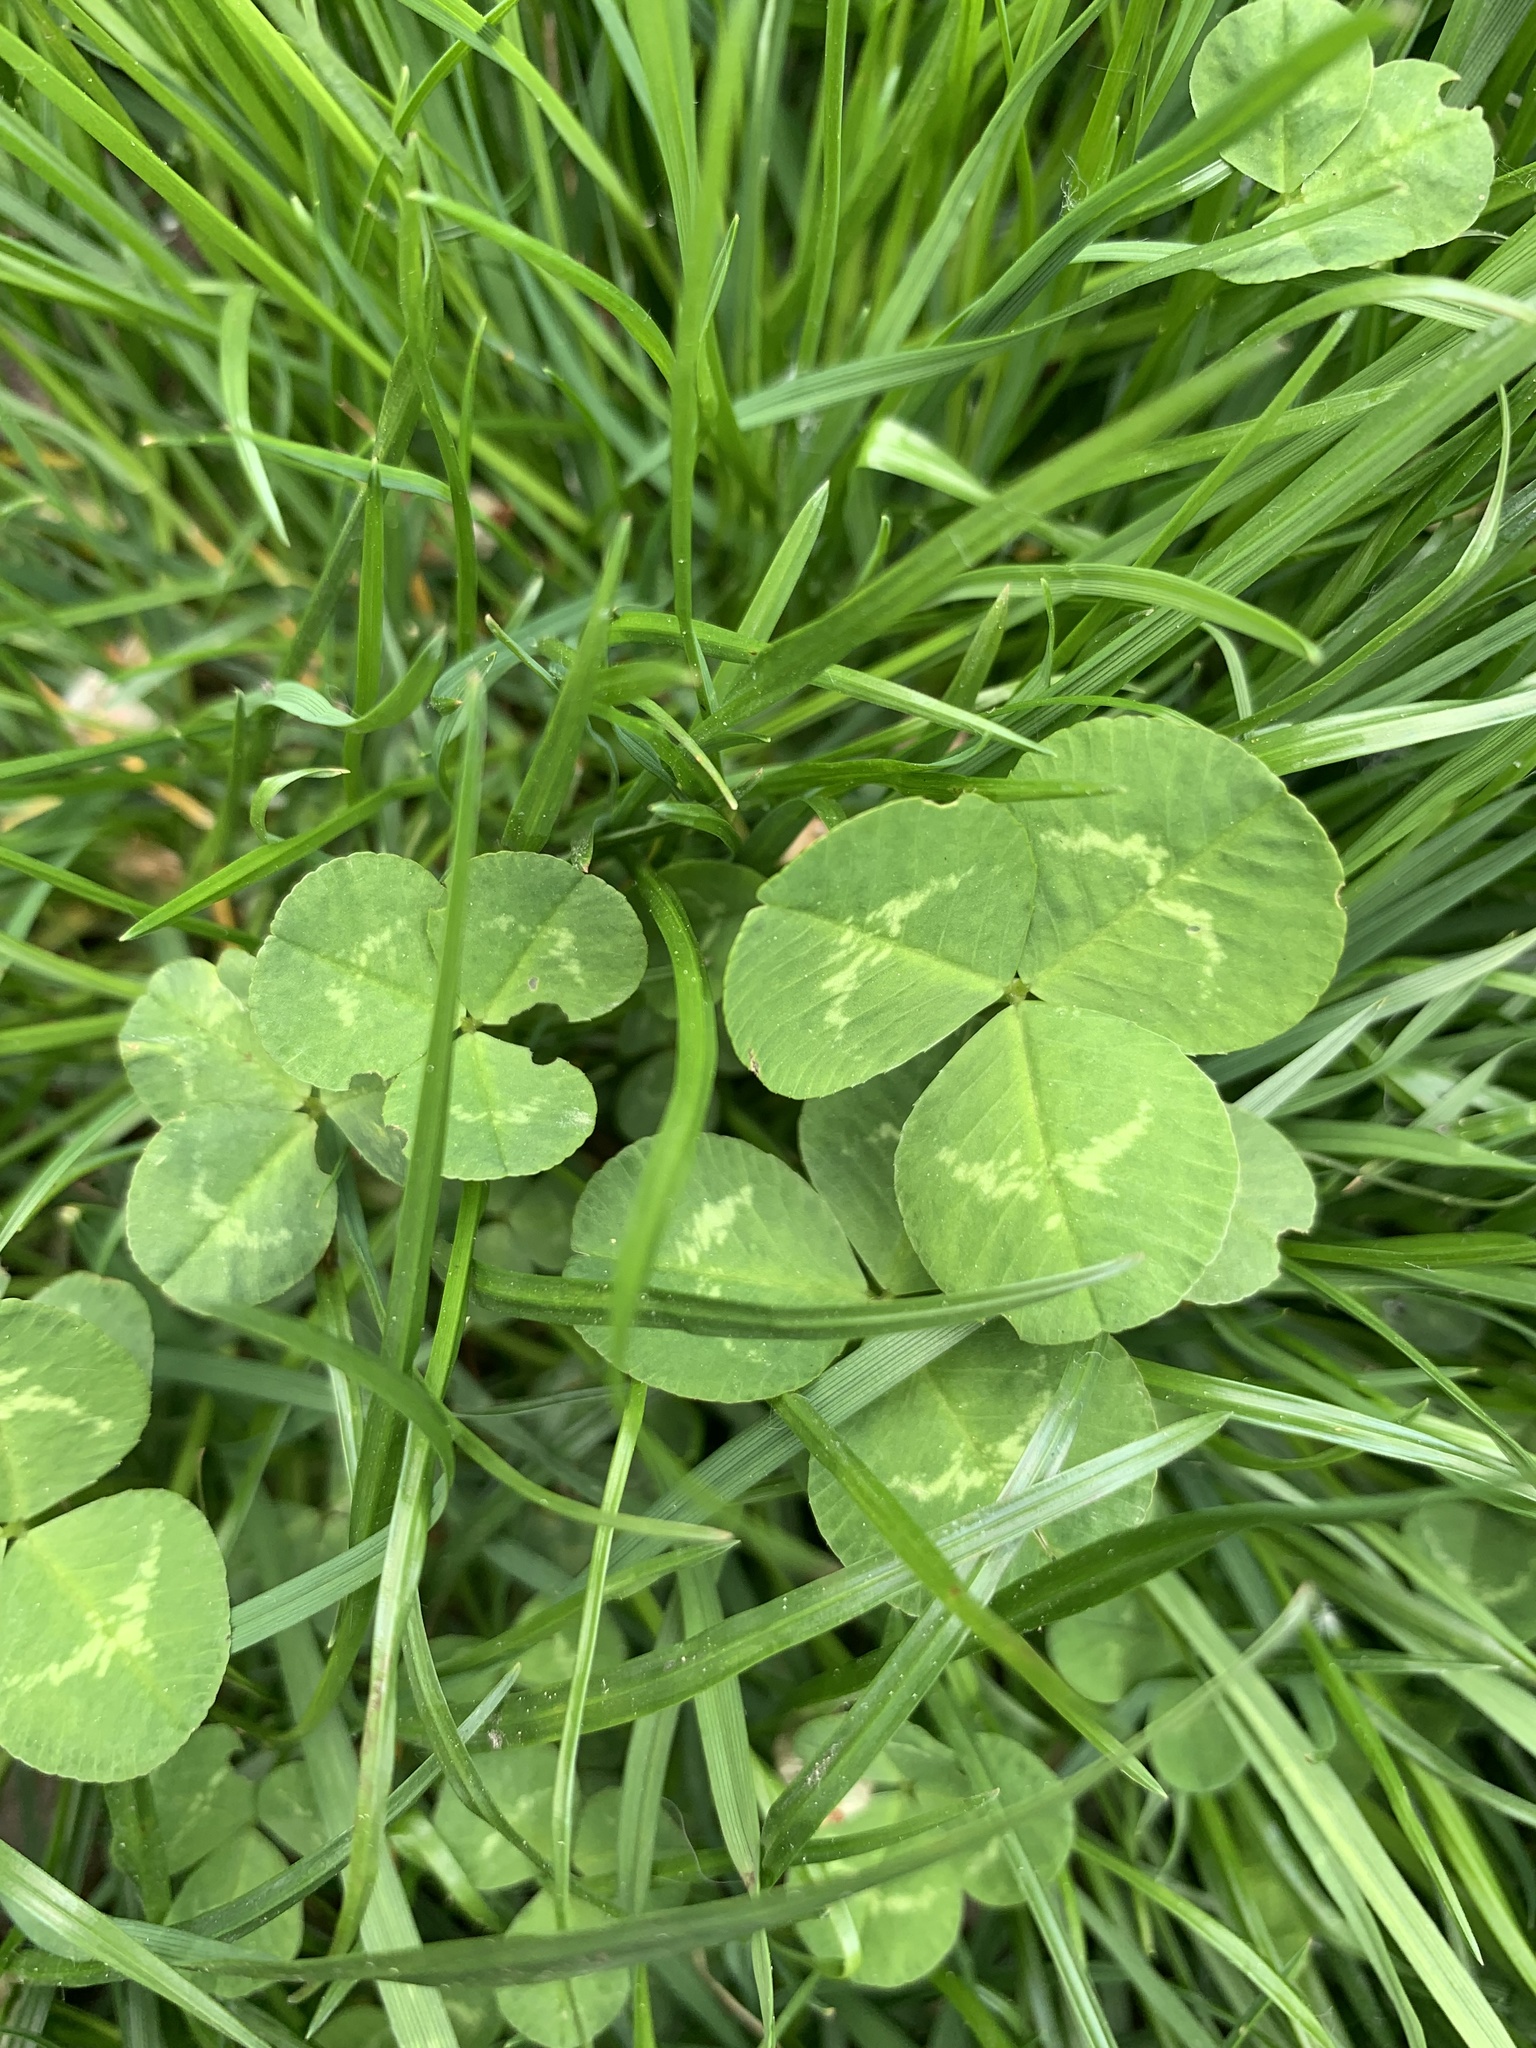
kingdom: Plantae
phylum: Tracheophyta
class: Magnoliopsida
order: Fabales
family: Fabaceae
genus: Trifolium
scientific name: Trifolium repens
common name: White clover
